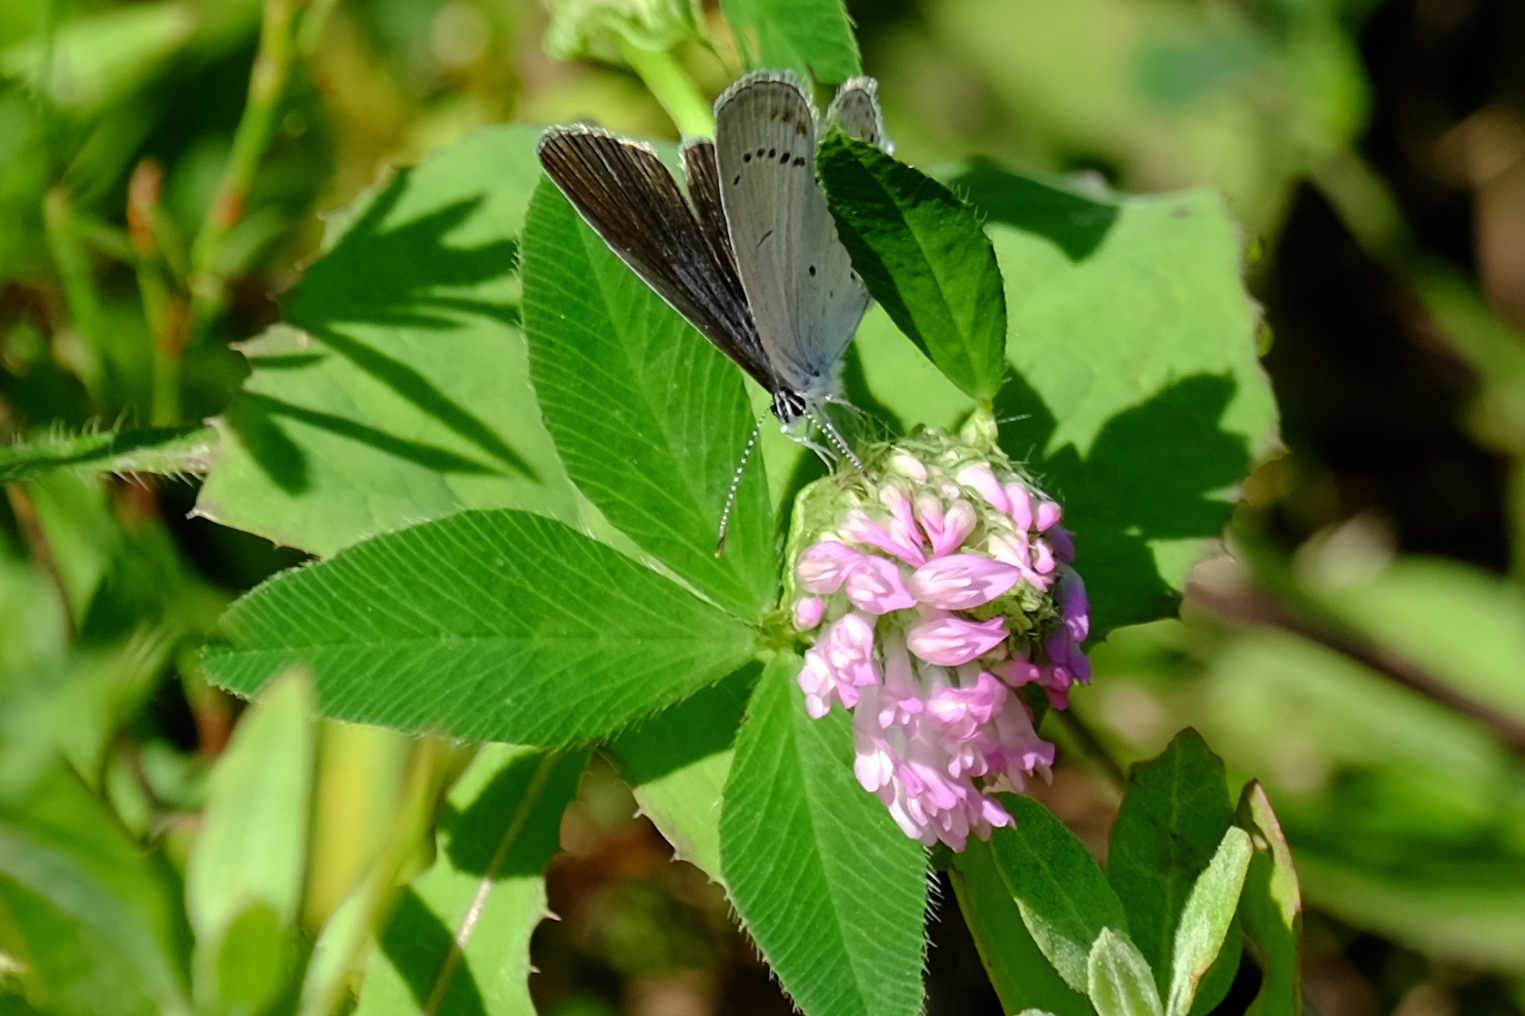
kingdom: Animalia
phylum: Arthropoda
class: Insecta
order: Lepidoptera
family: Lycaenidae
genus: Elkalyce
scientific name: Elkalyce argiades
